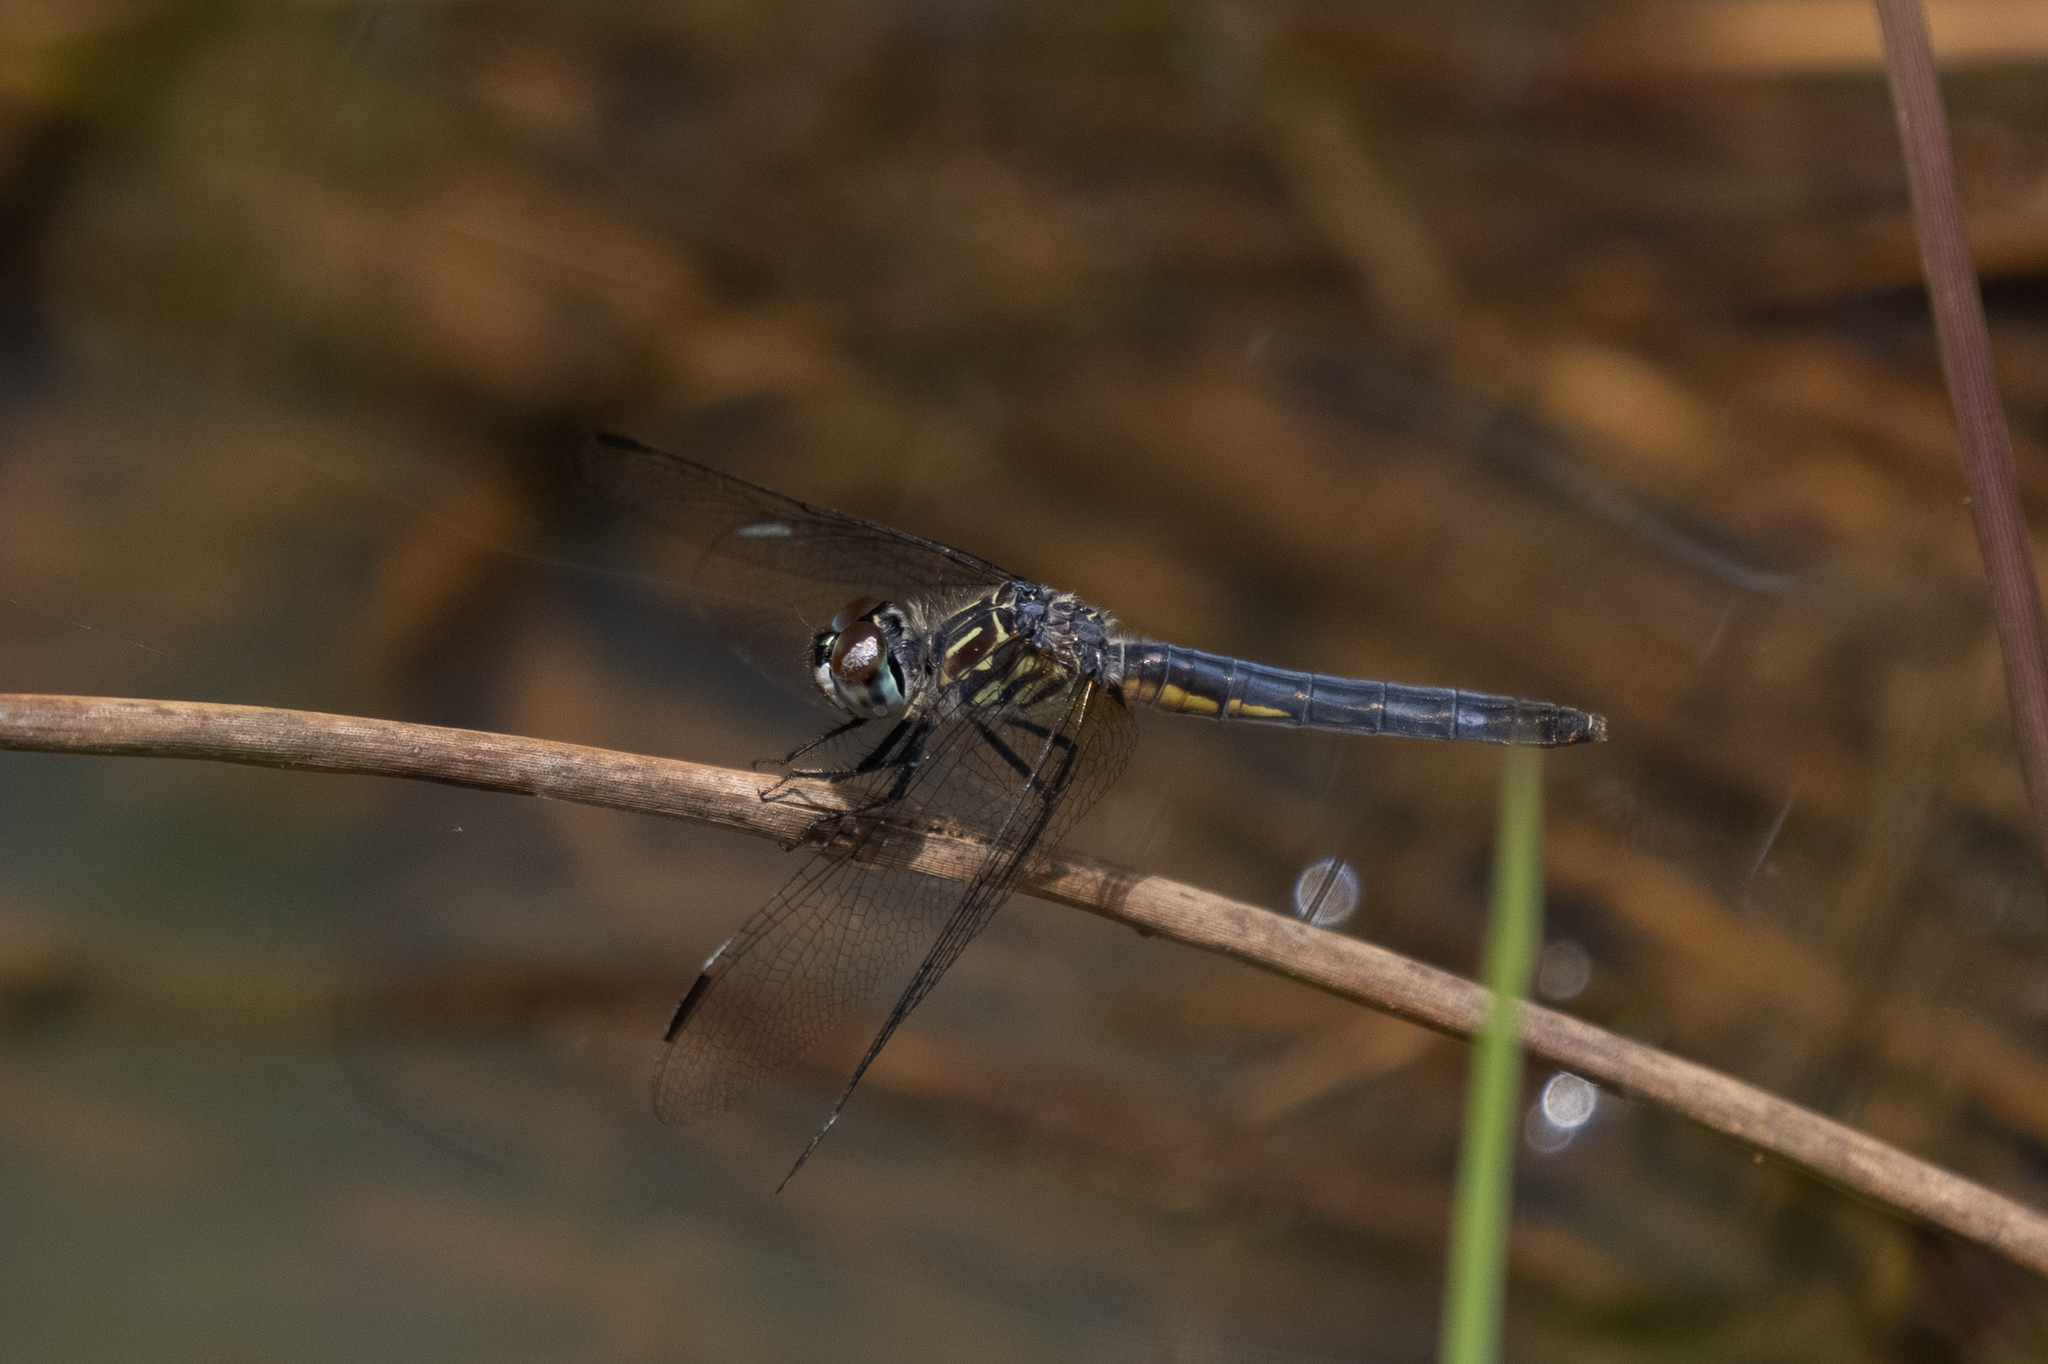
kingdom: Animalia
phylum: Arthropoda
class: Insecta
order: Odonata
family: Libellulidae
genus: Pachydiplax
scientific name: Pachydiplax longipennis
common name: Blue dasher
